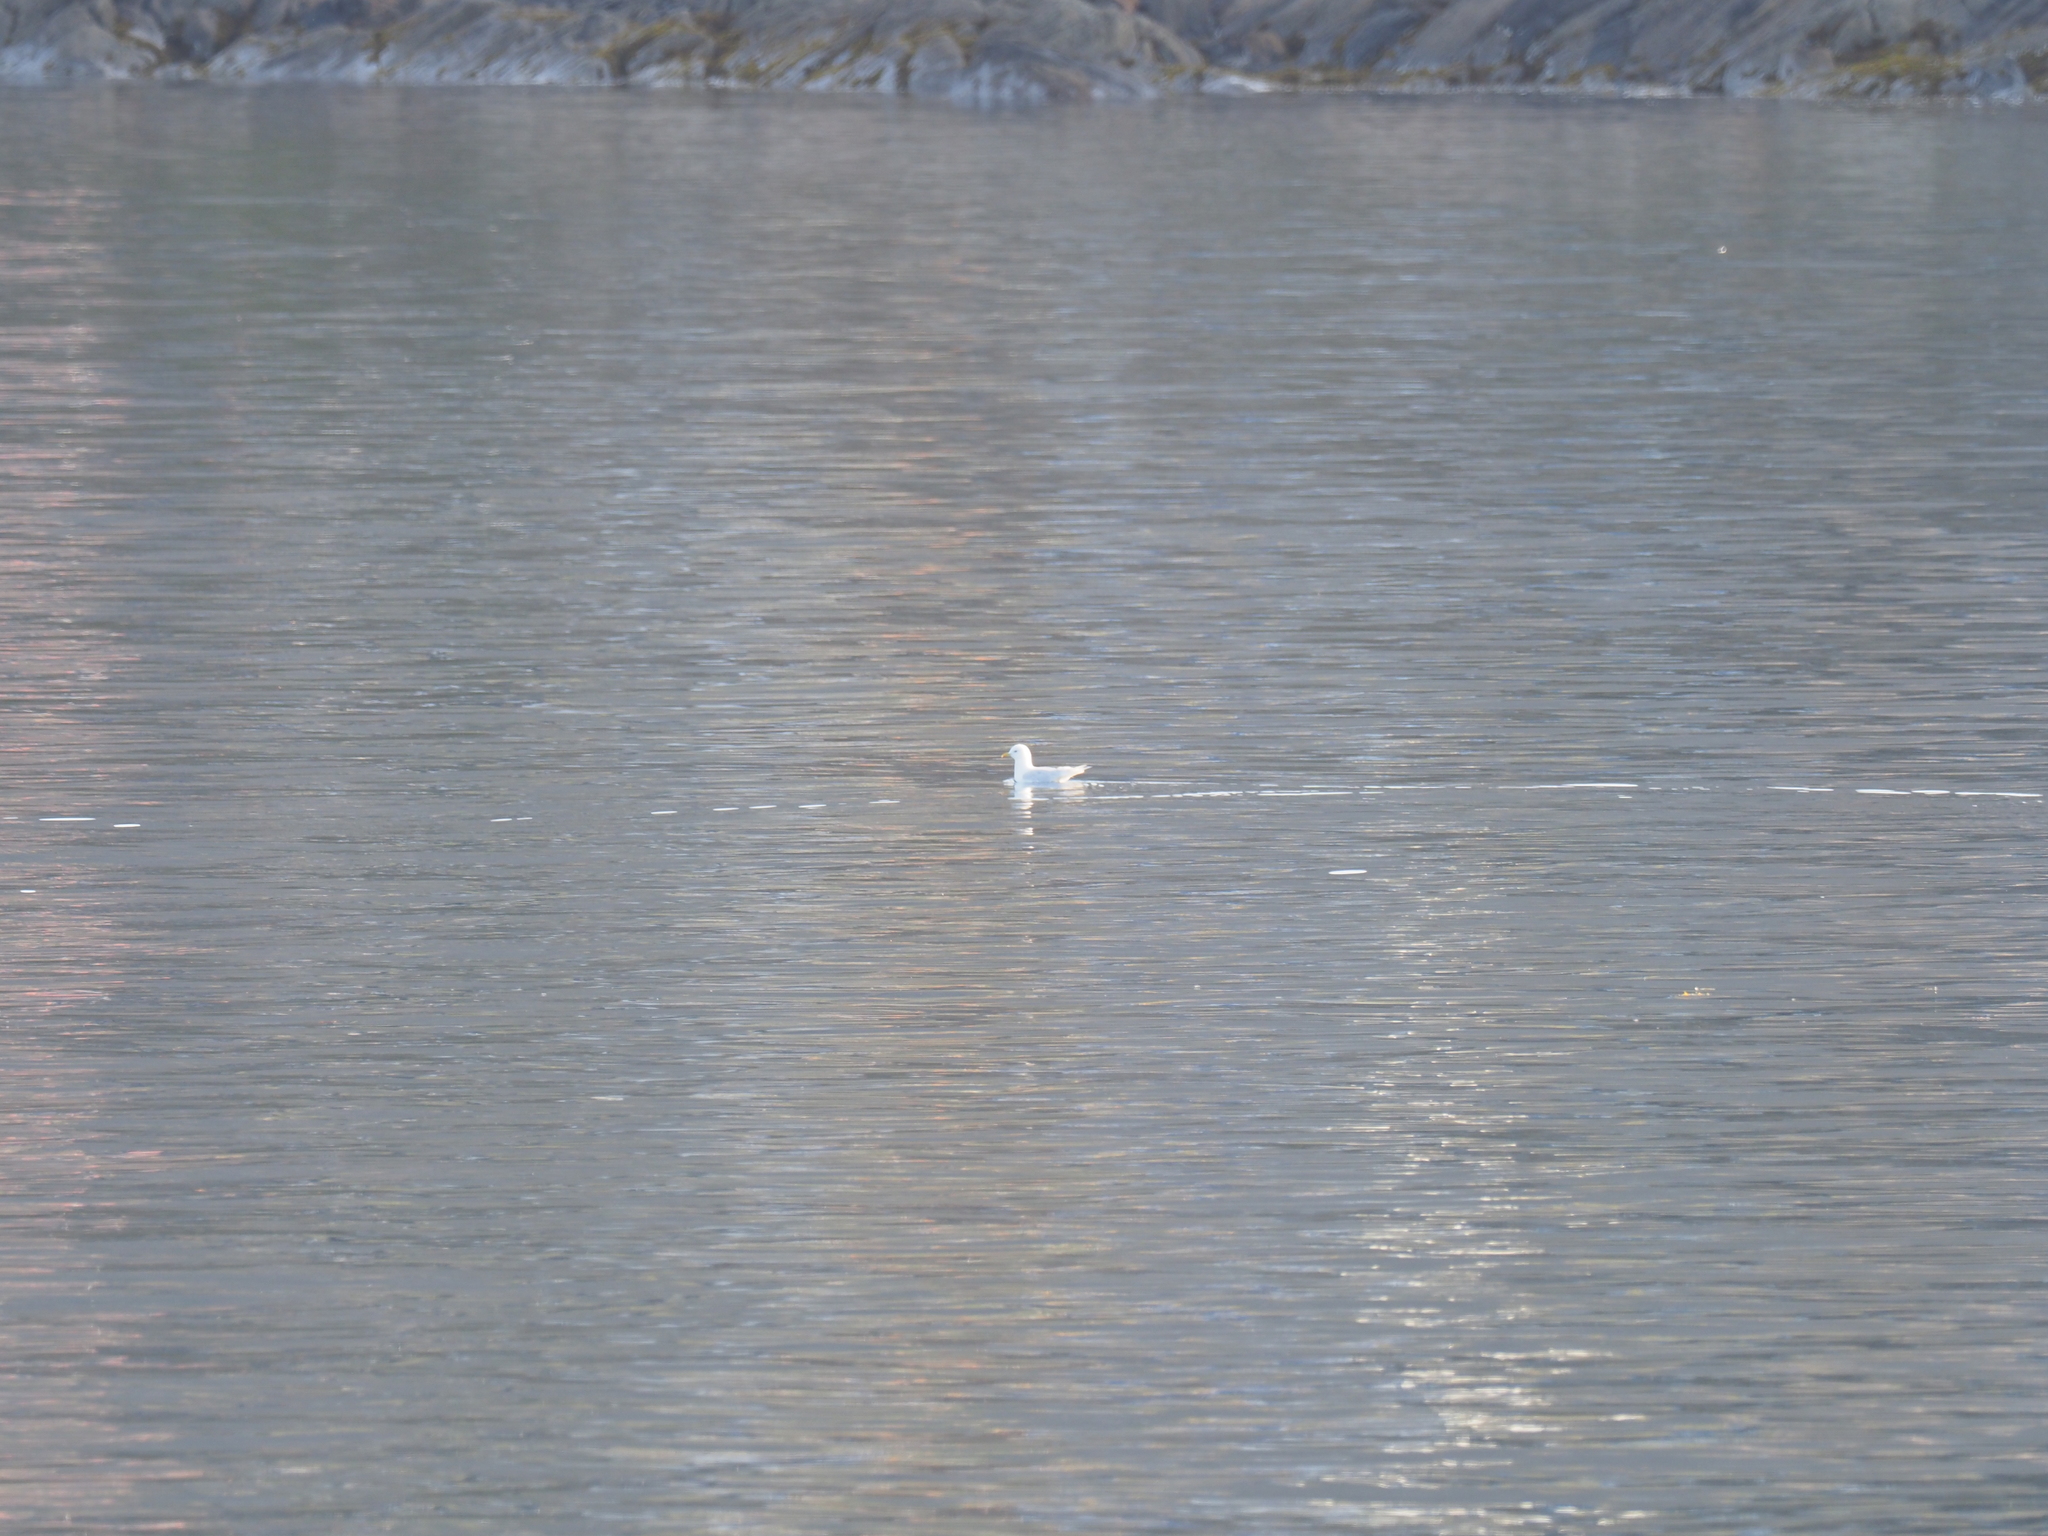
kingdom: Animalia
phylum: Chordata
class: Aves
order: Charadriiformes
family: Laridae
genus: Larus
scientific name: Larus glaucoides
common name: Iceland gull
